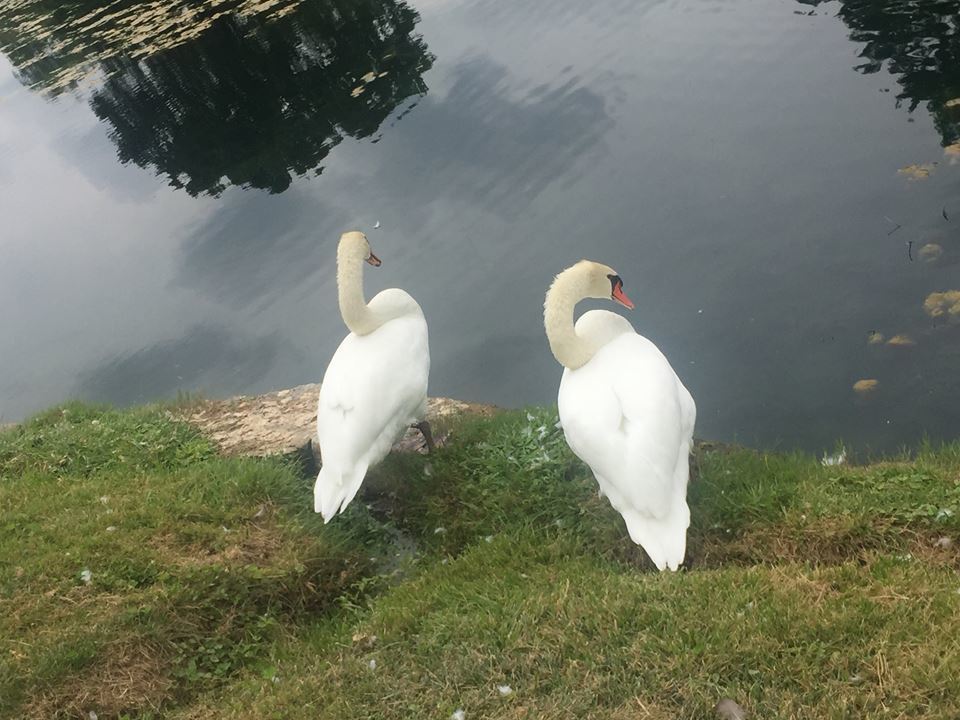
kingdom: Animalia
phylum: Chordata
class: Aves
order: Anseriformes
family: Anatidae
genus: Cygnus
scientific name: Cygnus olor
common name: Mute swan
